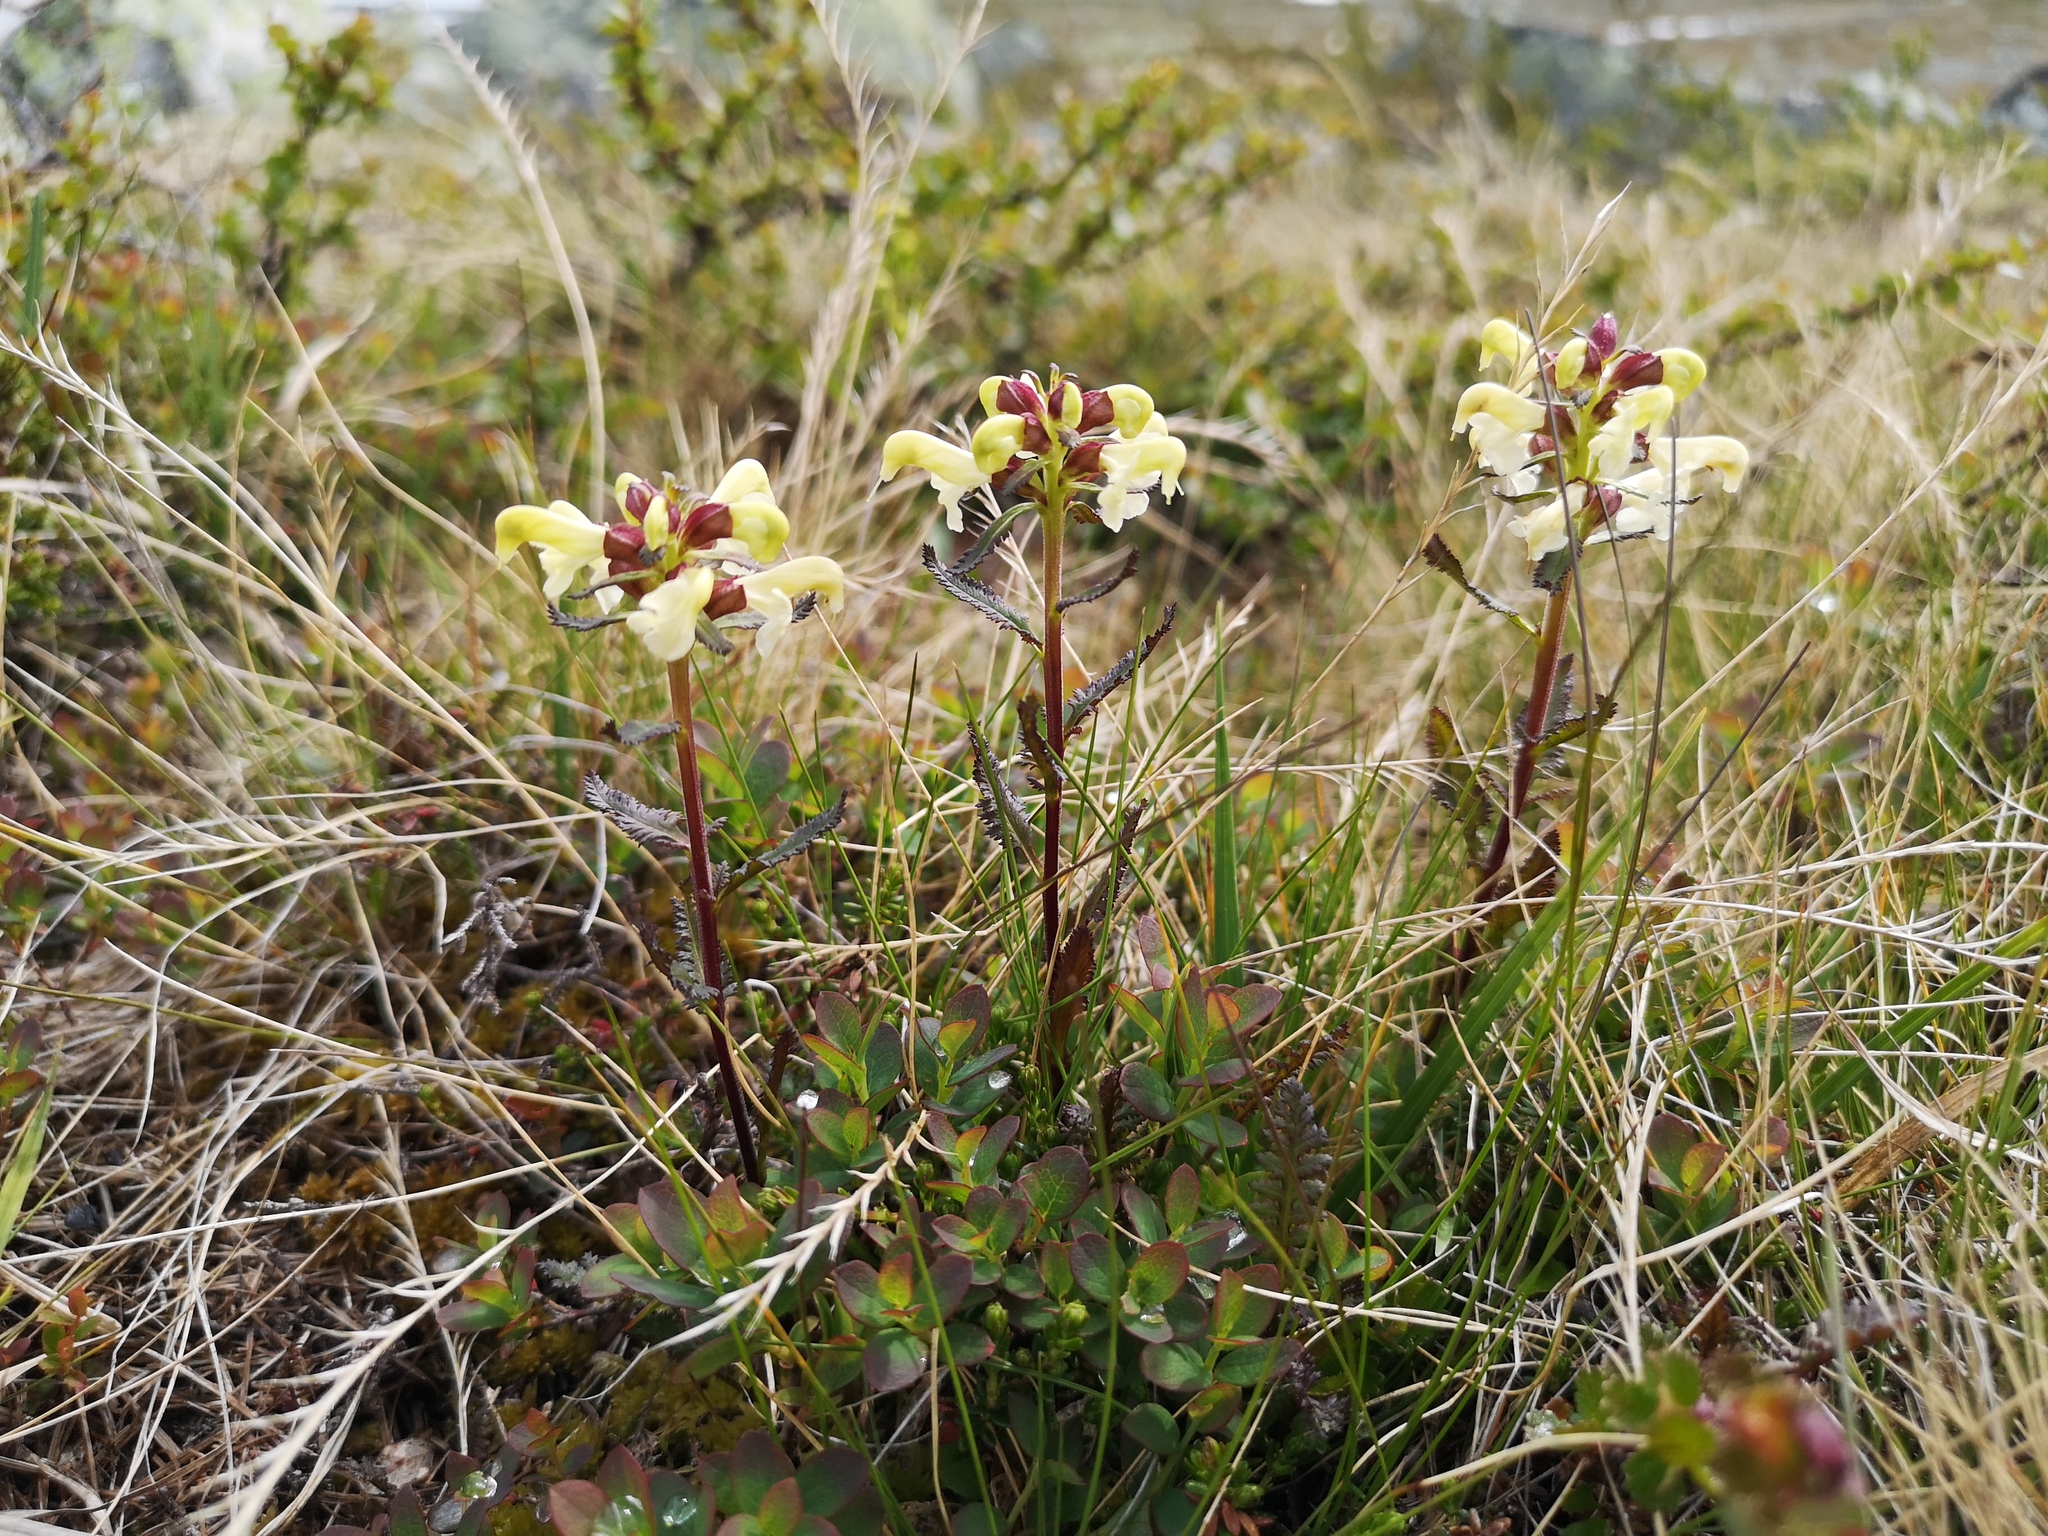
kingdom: Plantae
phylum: Tracheophyta
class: Magnoliopsida
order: Lamiales
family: Orobanchaceae
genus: Pedicularis
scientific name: Pedicularis lapponica
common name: Lapland lousewort
